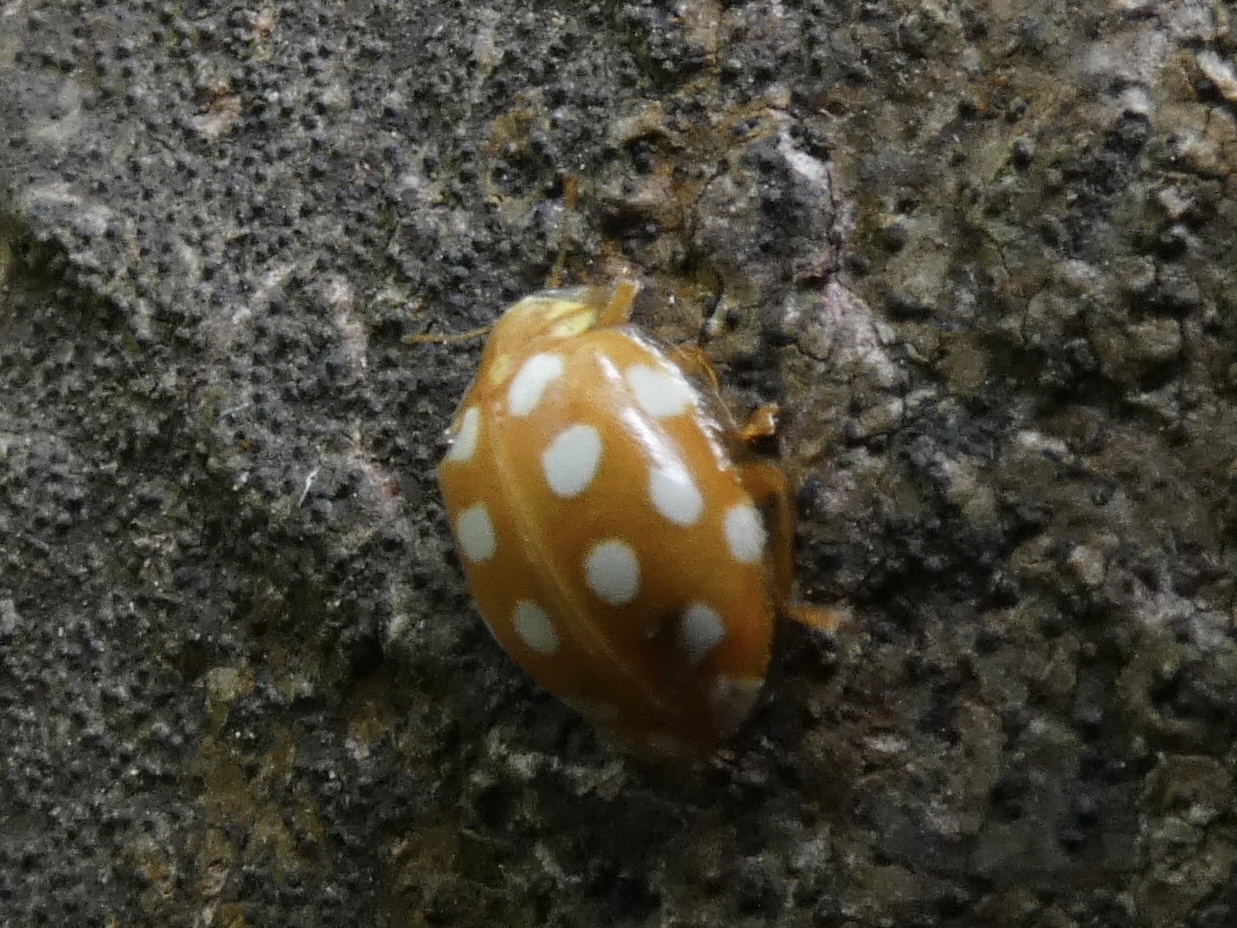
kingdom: Animalia
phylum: Arthropoda
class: Insecta
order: Coleoptera
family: Coccinellidae
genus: Halyzia
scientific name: Halyzia sedecimguttata
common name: Orange ladybird
